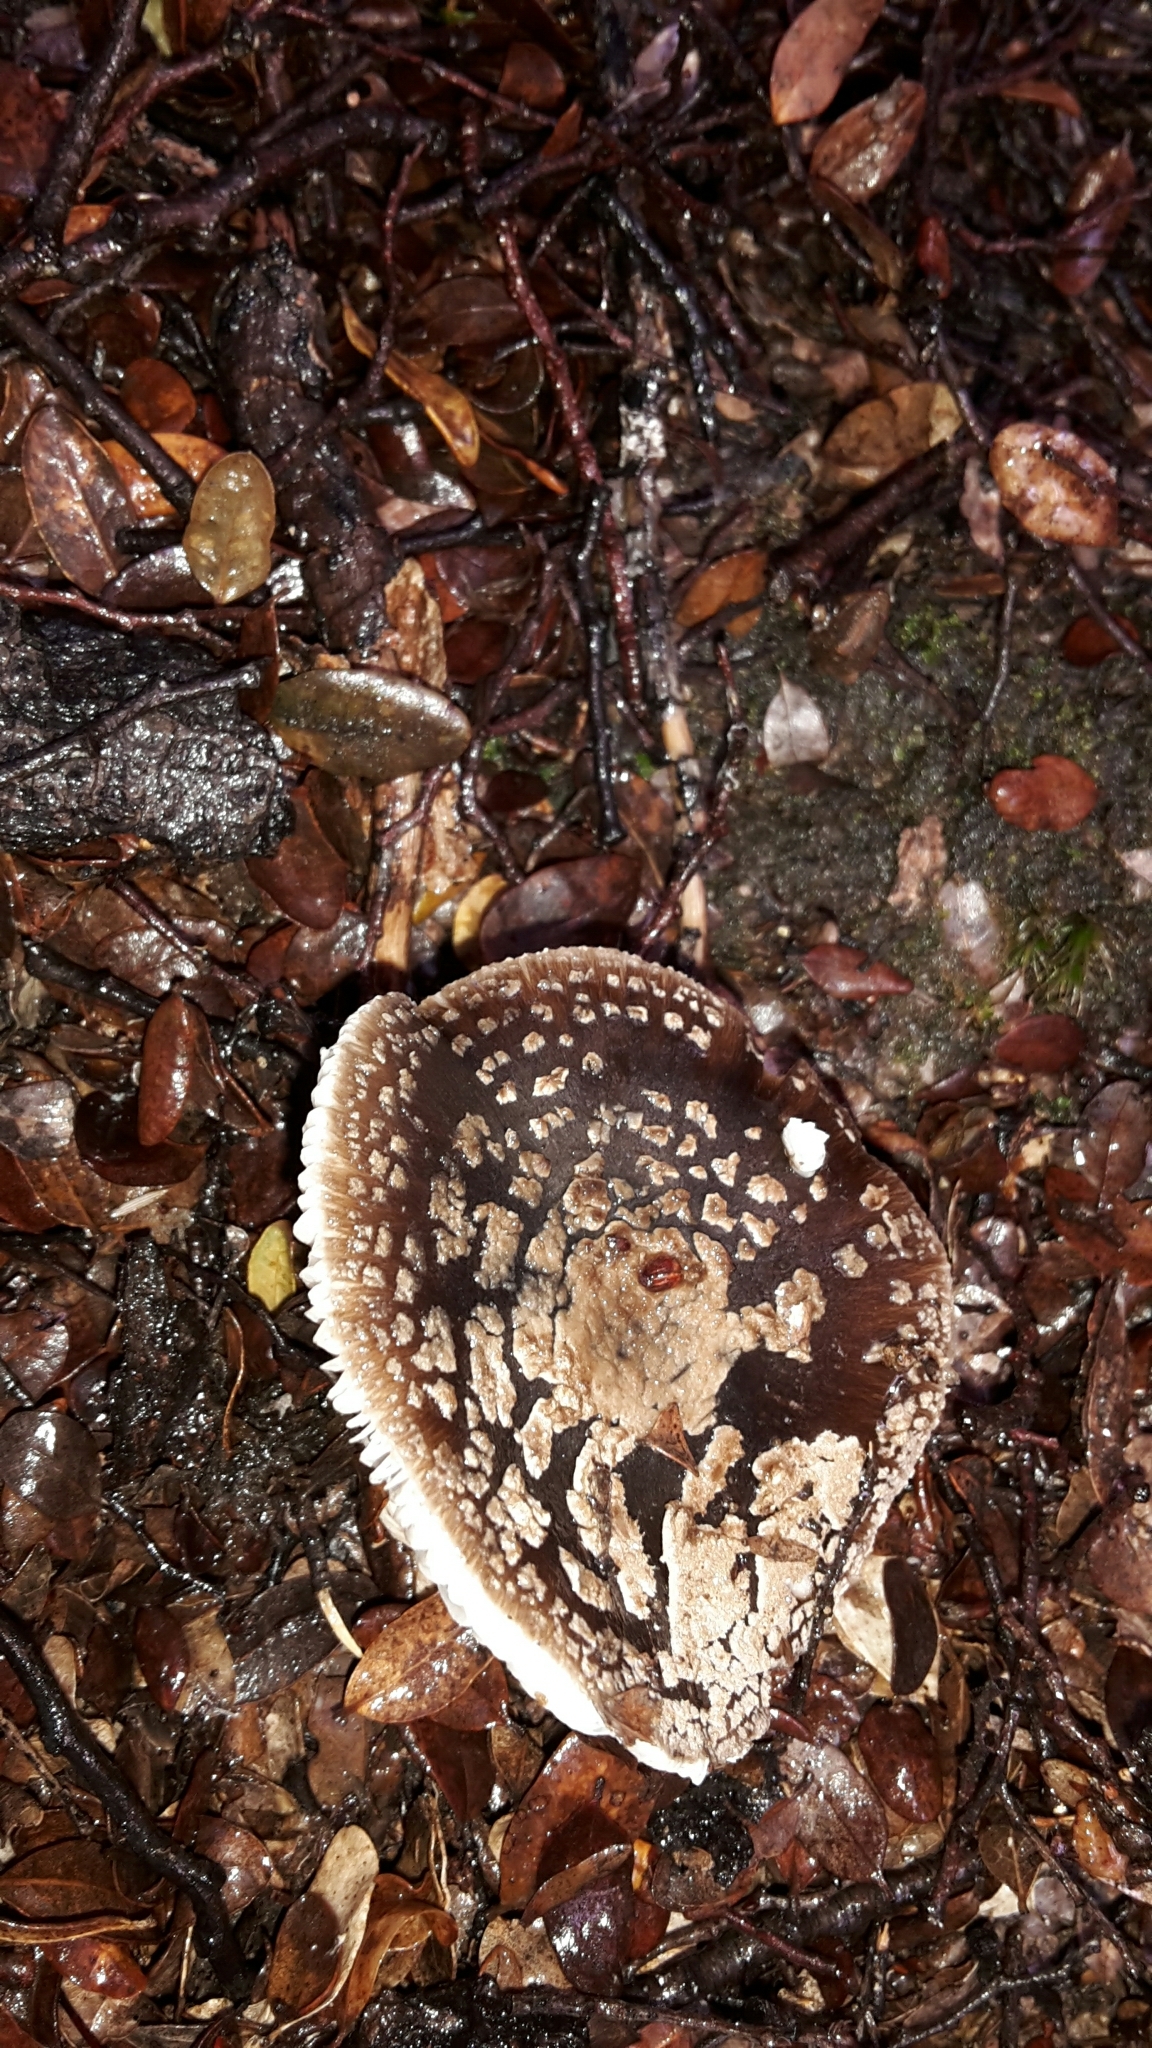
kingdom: Fungi
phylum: Basidiomycota
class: Agaricomycetes
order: Agaricales
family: Amanitaceae
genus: Amanita
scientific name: Amanita nothofagi
